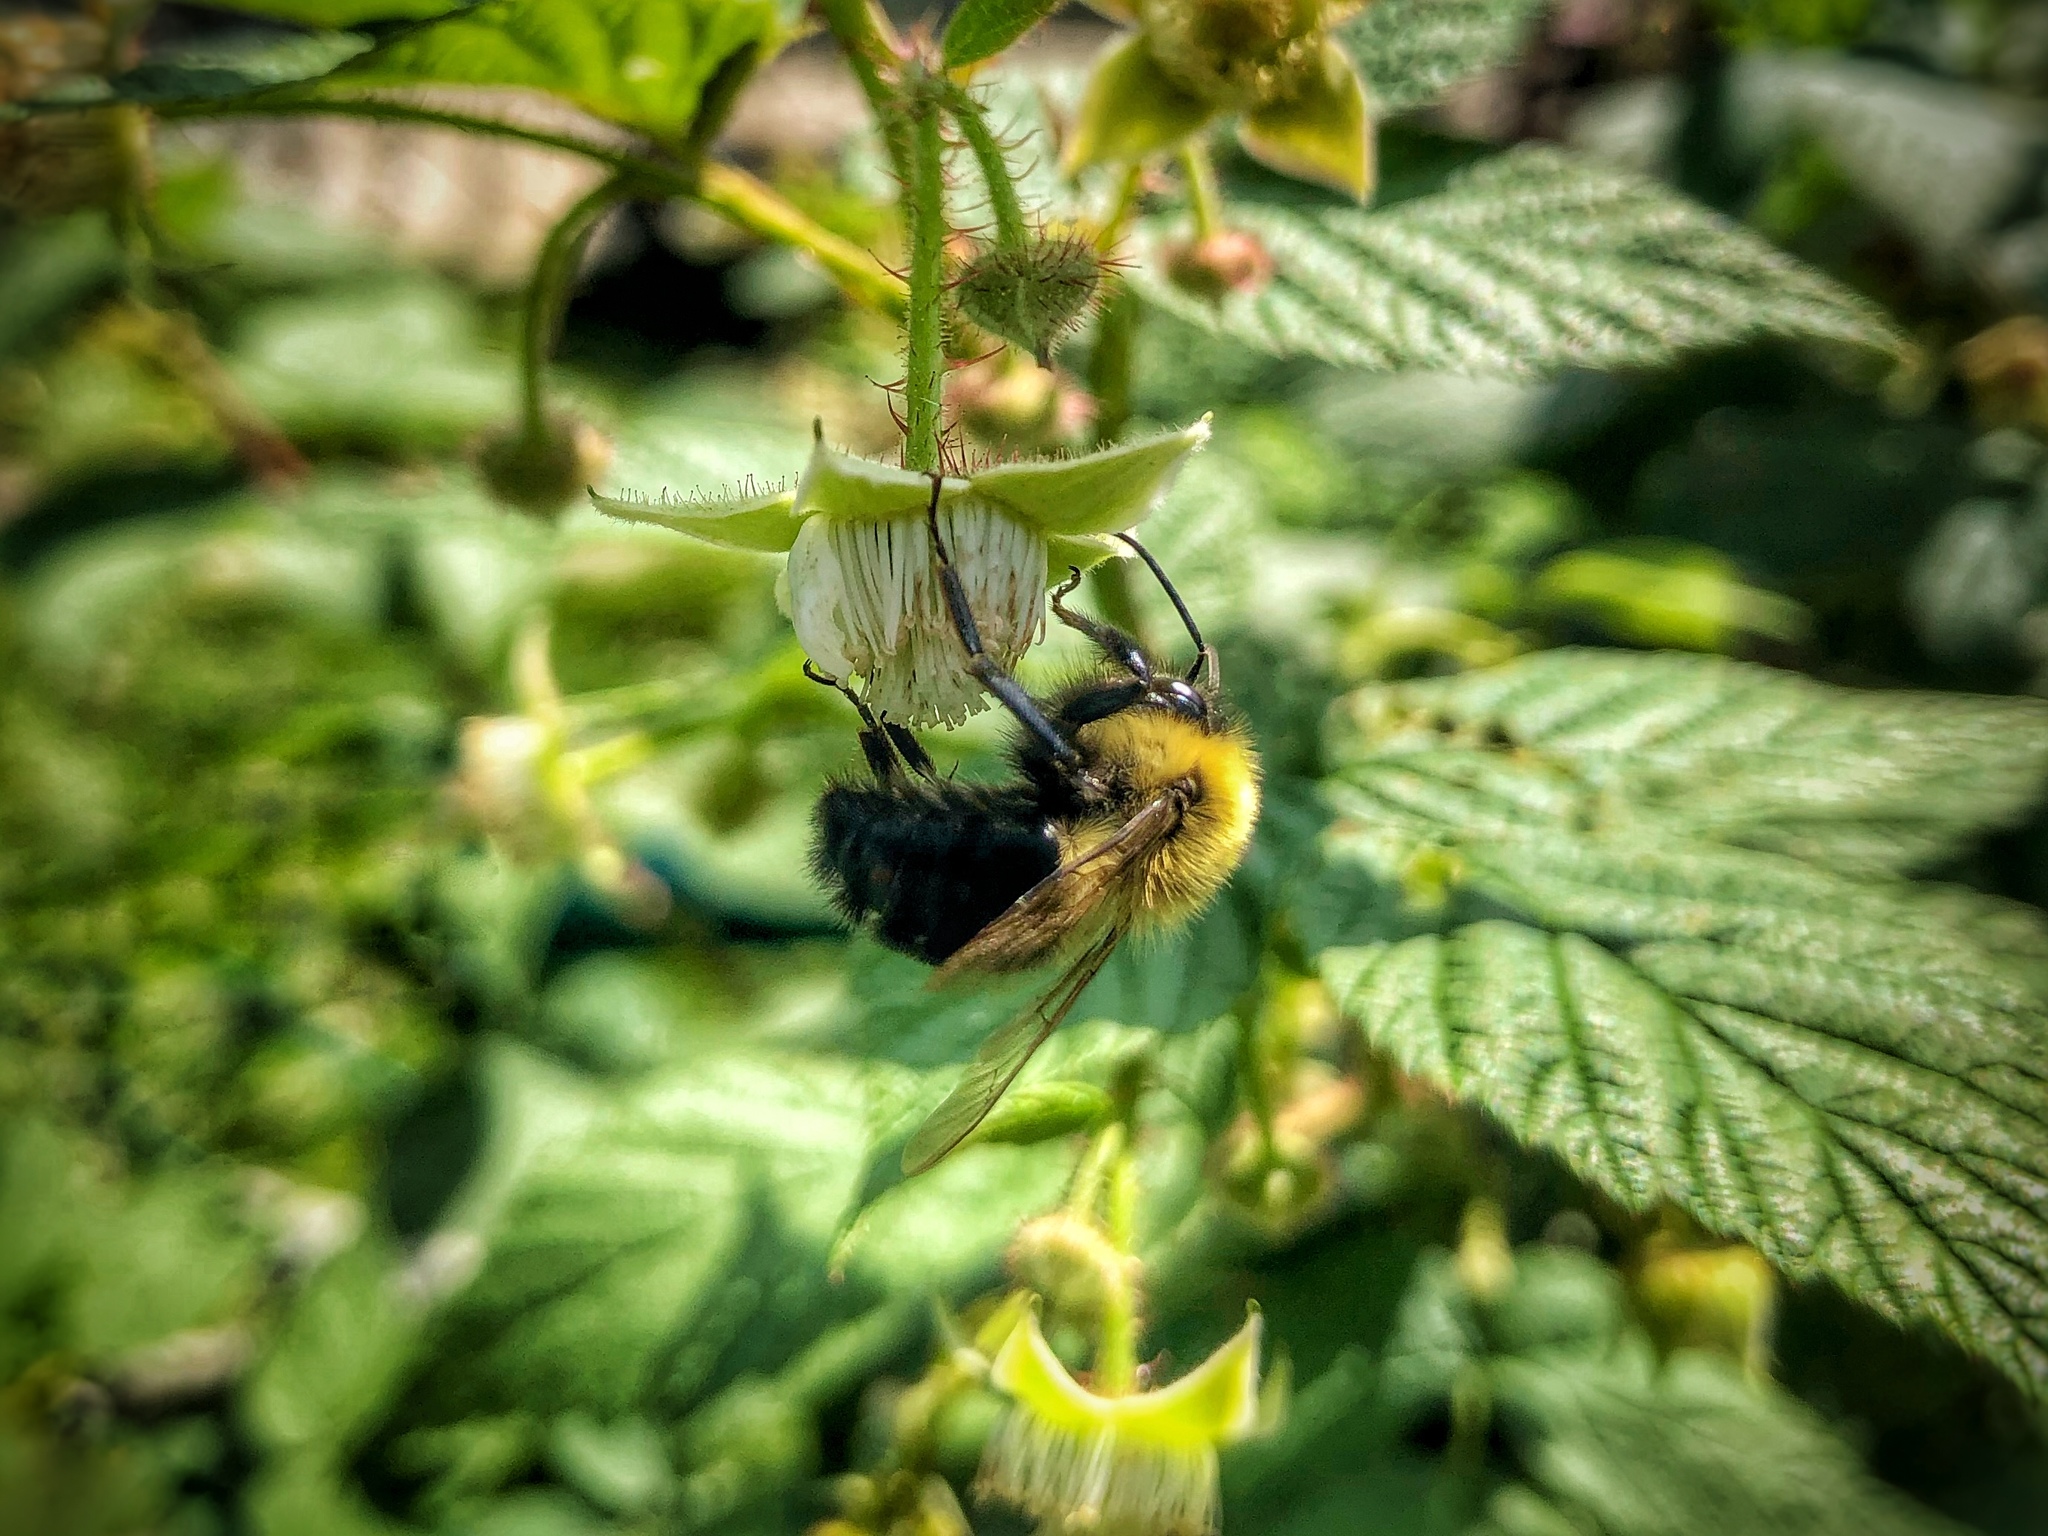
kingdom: Animalia
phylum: Arthropoda
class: Insecta
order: Hymenoptera
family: Apidae
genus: Bombus
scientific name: Bombus impatiens
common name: Common eastern bumble bee
